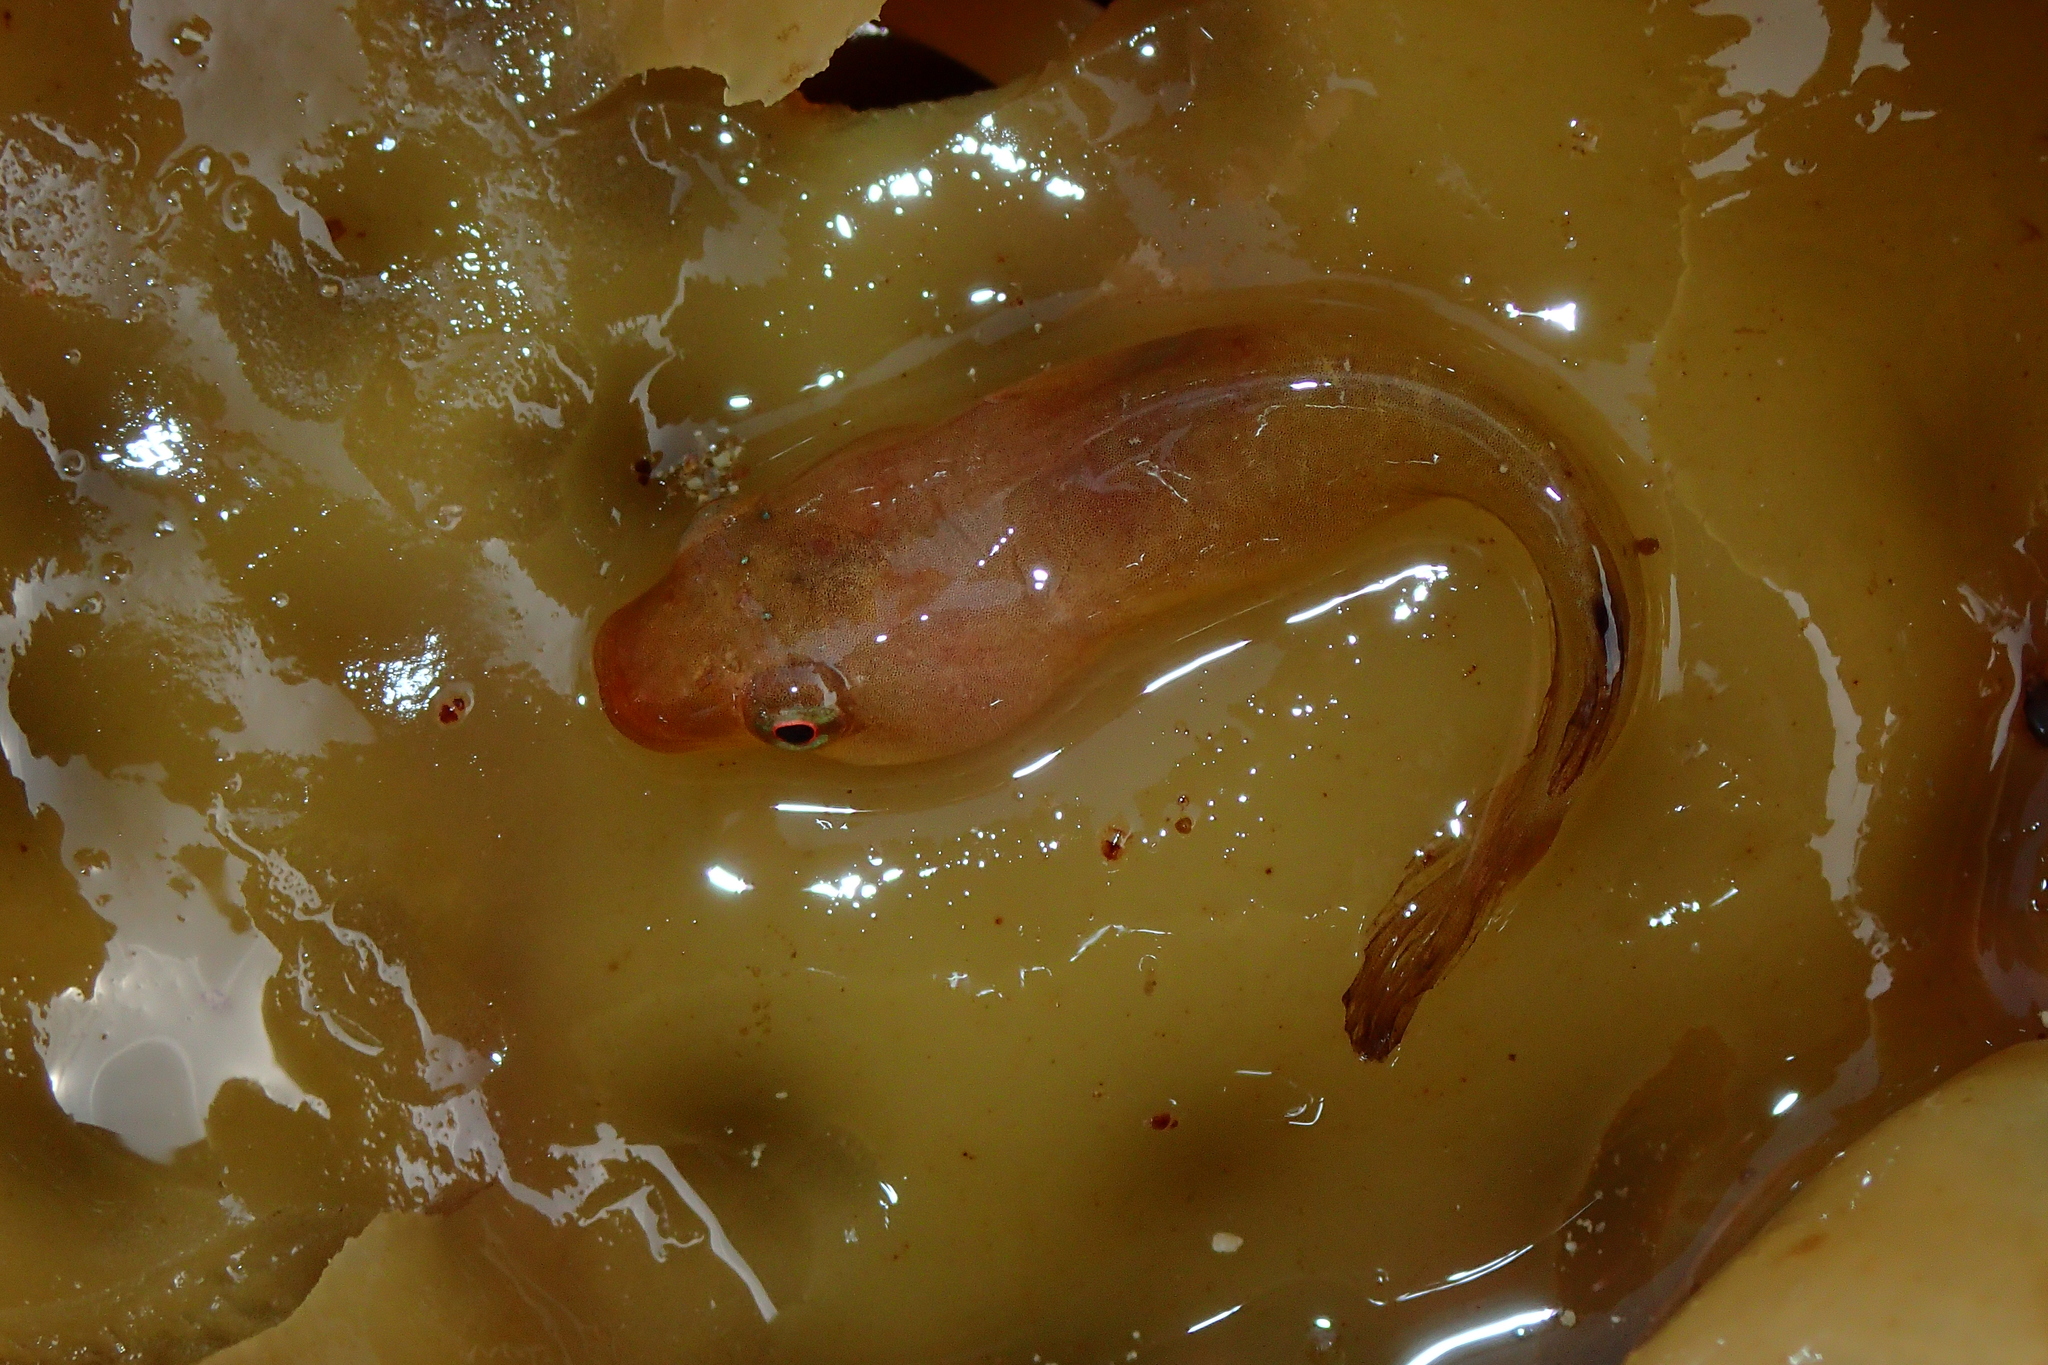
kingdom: Animalia
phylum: Chordata
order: Gobiesociformes
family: Gobiesocidae
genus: Apletodon
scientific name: Apletodon dentatus
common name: Small-headed clingfish
